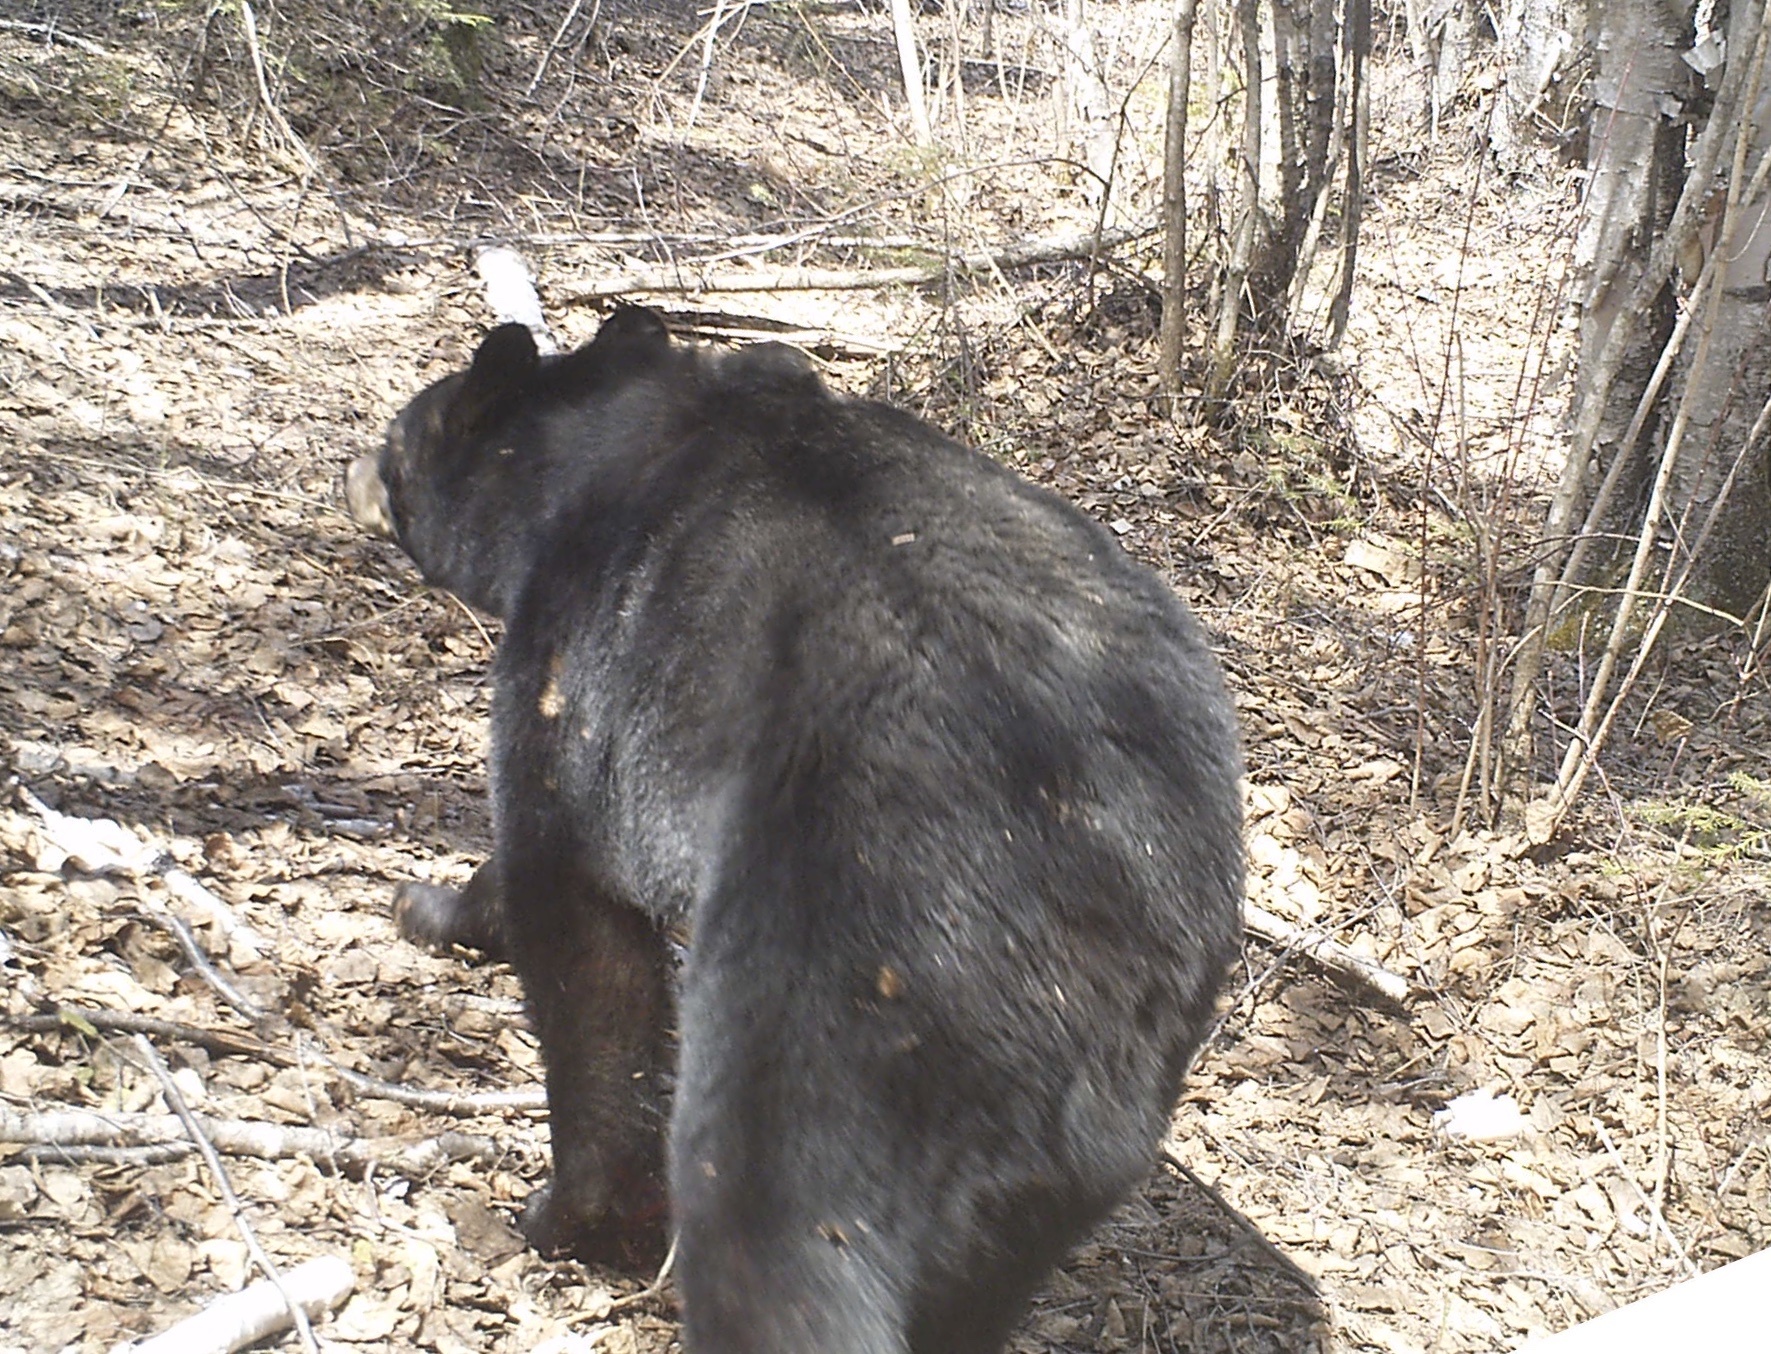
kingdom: Animalia
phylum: Chordata
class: Mammalia
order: Carnivora
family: Ursidae
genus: Ursus
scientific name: Ursus americanus
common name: American black bear
